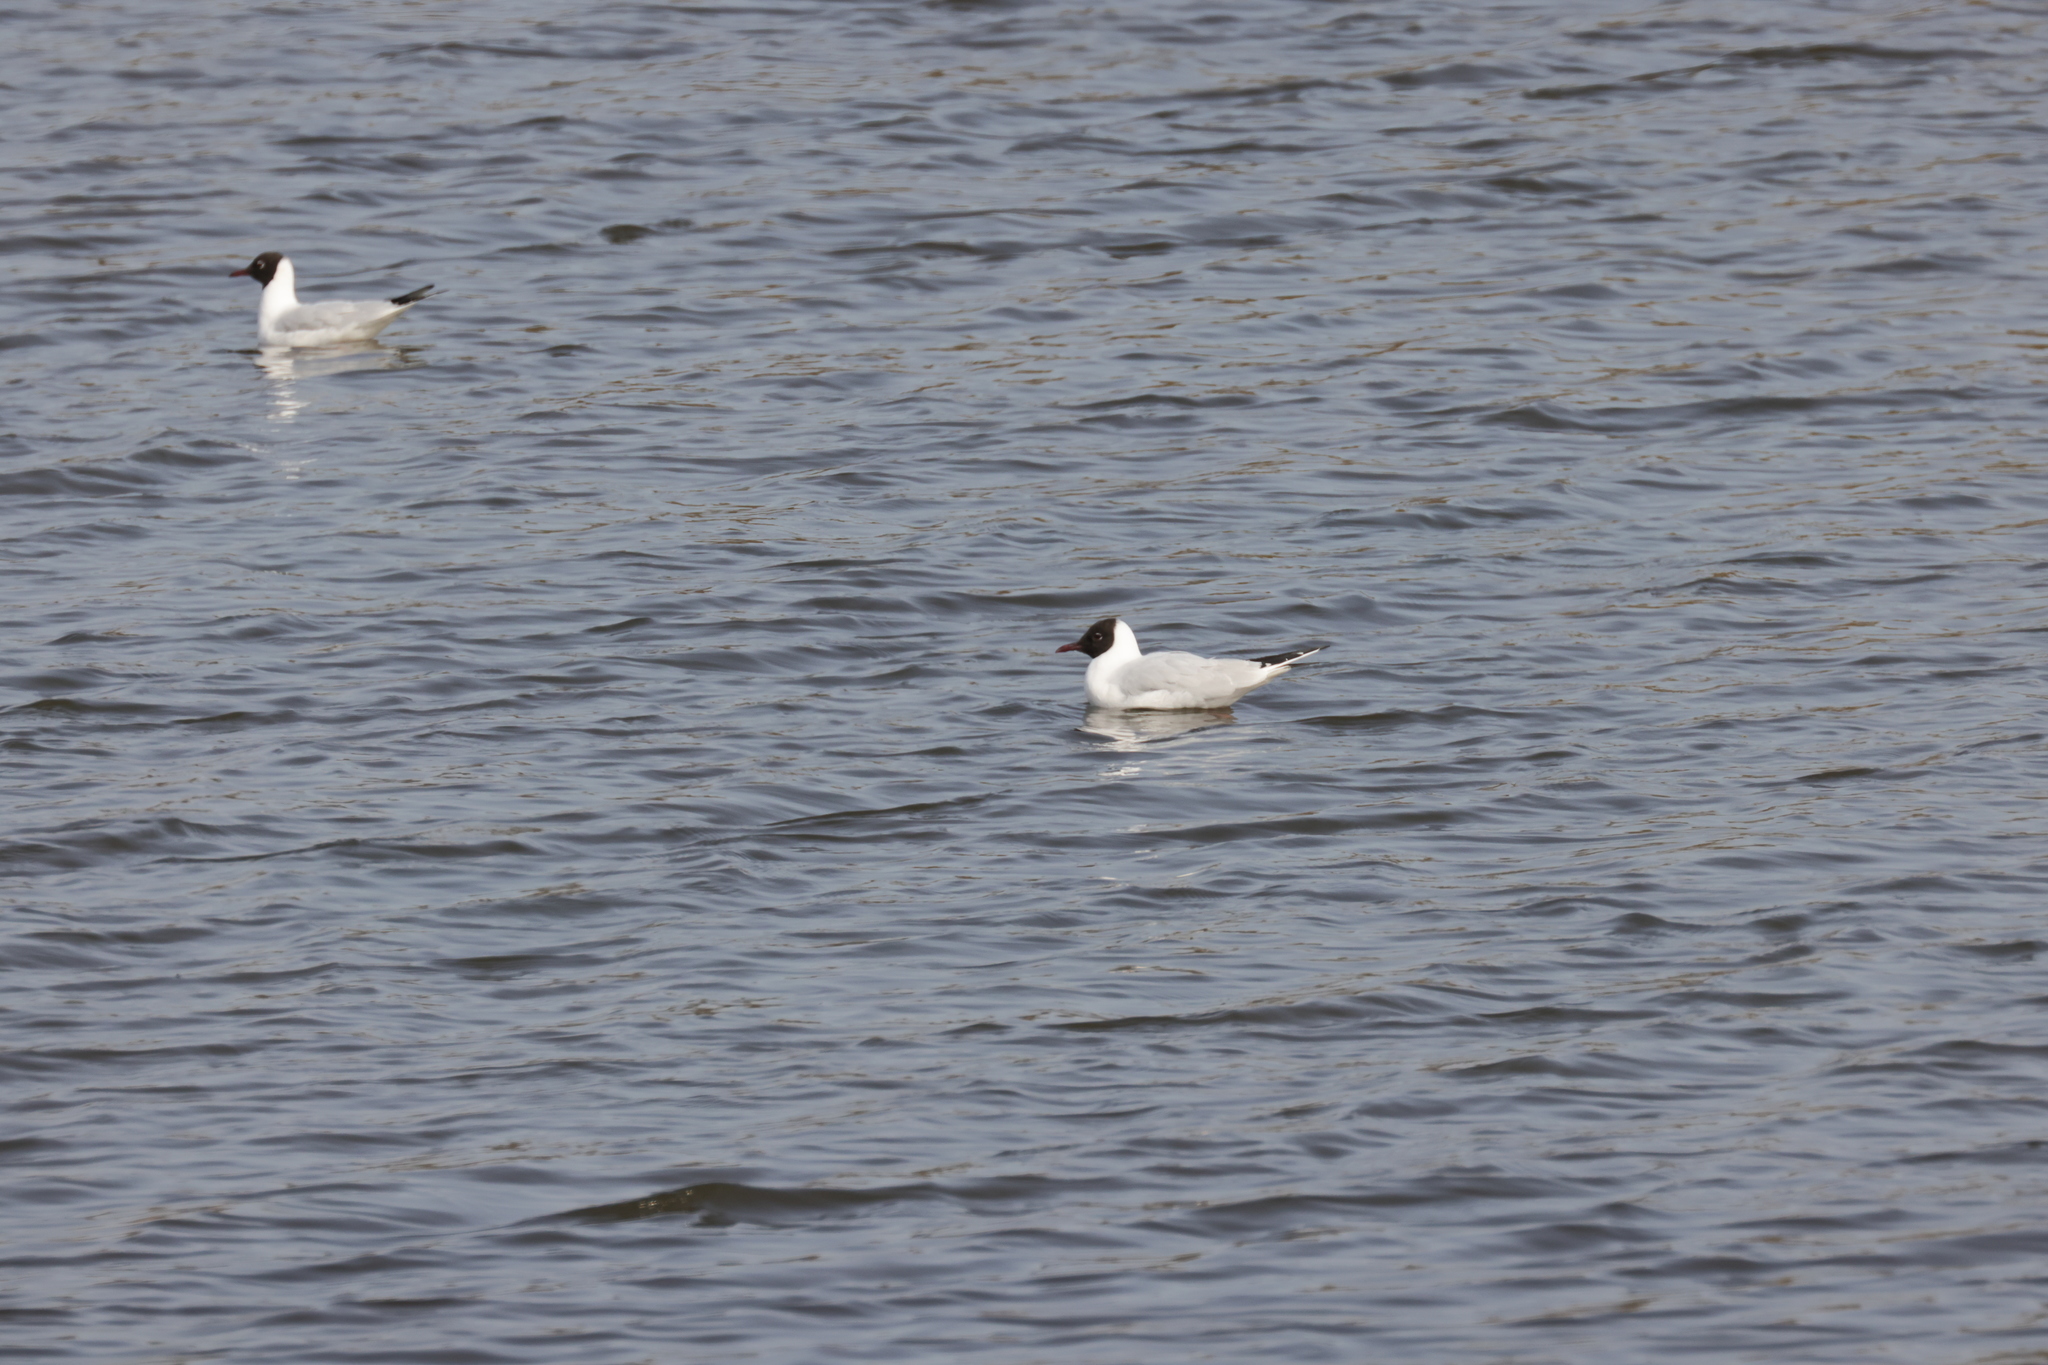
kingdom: Animalia
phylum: Chordata
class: Aves
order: Charadriiformes
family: Laridae
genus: Chroicocephalus
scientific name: Chroicocephalus ridibundus
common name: Black-headed gull
